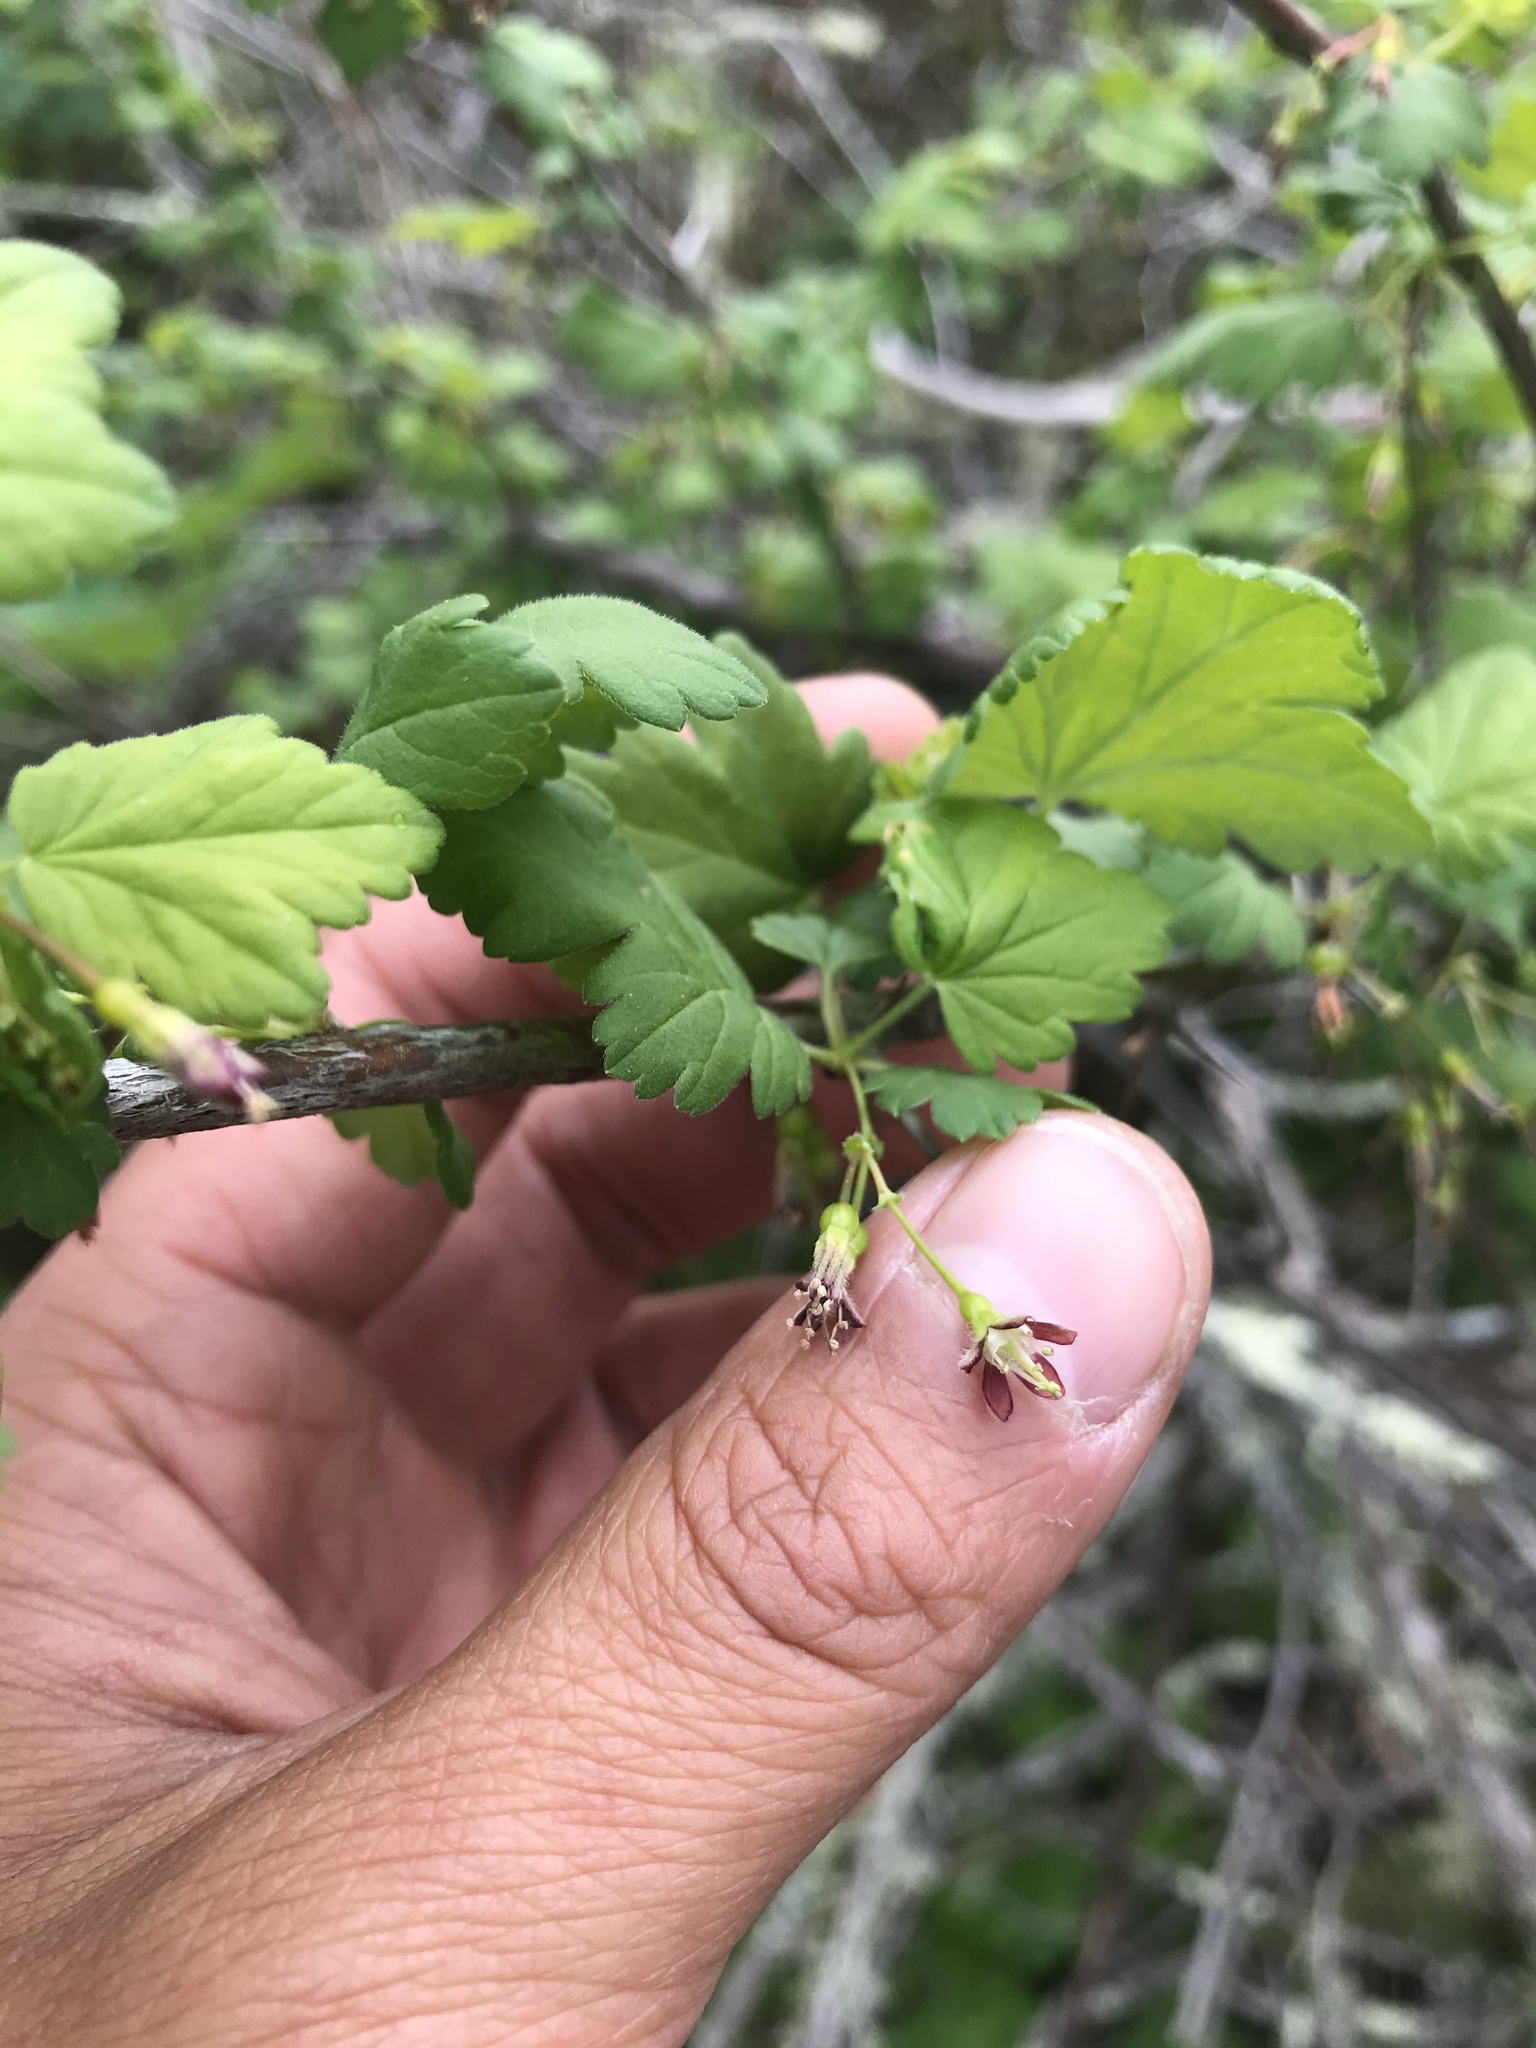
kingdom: Plantae
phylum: Tracheophyta
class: Magnoliopsida
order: Saxifragales
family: Grossulariaceae
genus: Ribes
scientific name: Ribes divaricatum
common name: Wild black gooseberry
